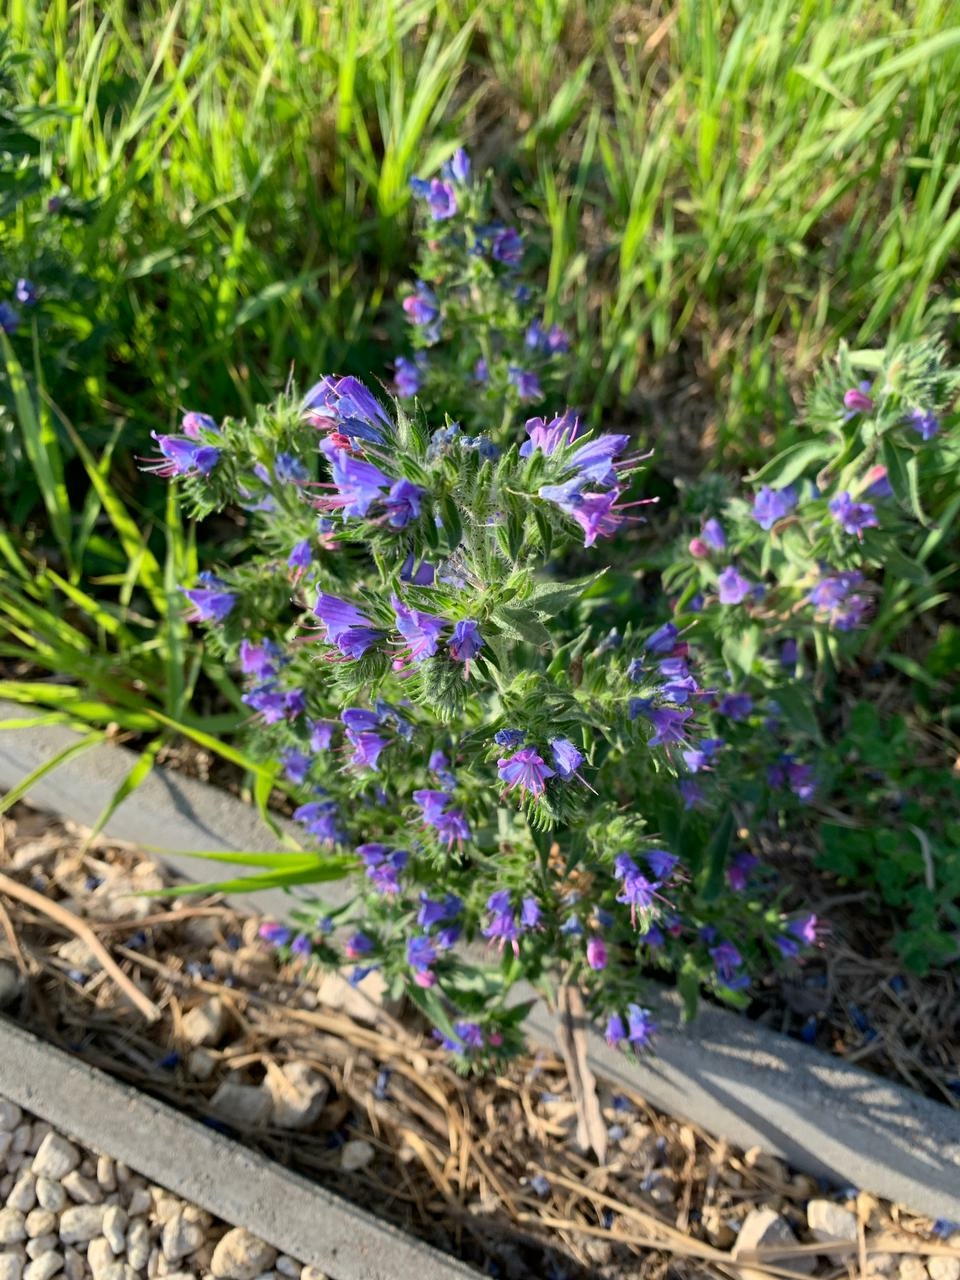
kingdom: Plantae
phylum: Tracheophyta
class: Magnoliopsida
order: Boraginales
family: Boraginaceae
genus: Echium
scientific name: Echium vulgare
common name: Common viper's bugloss
